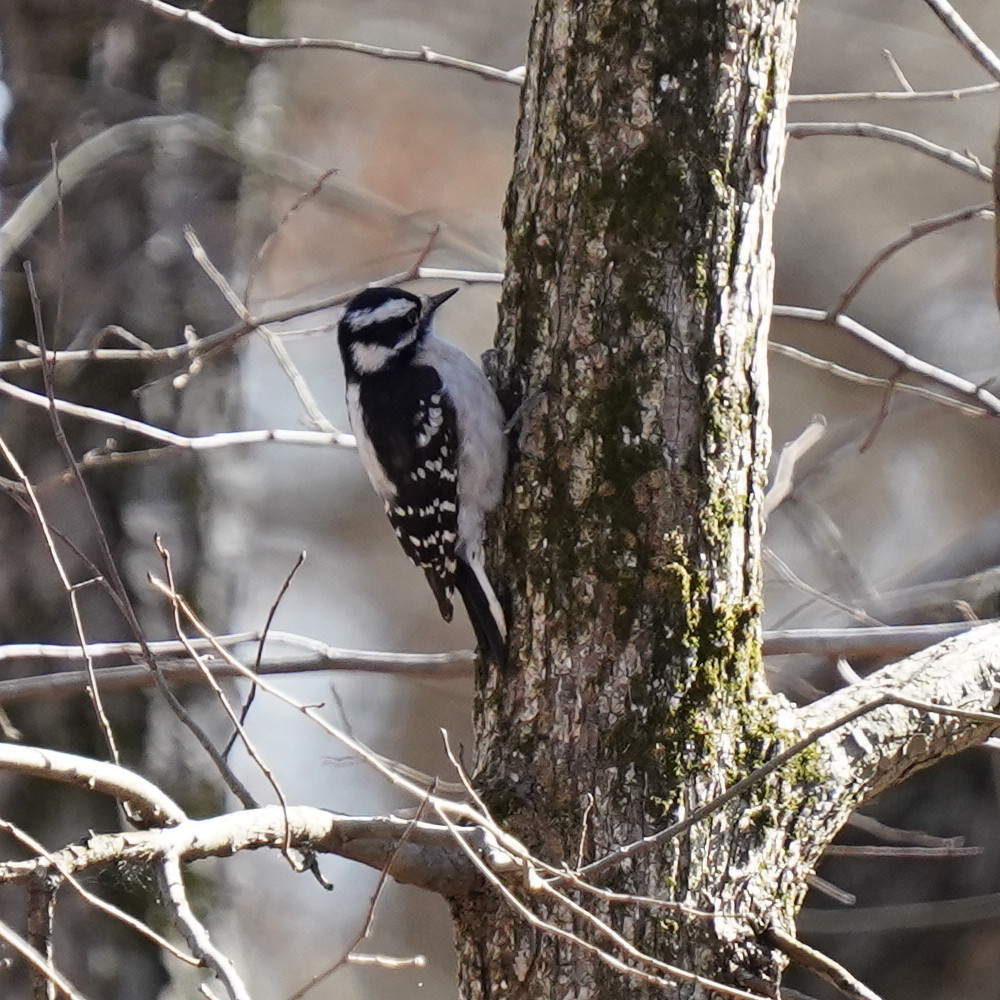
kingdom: Animalia
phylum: Chordata
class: Aves
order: Piciformes
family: Picidae
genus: Dryobates
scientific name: Dryobates pubescens
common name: Downy woodpecker
